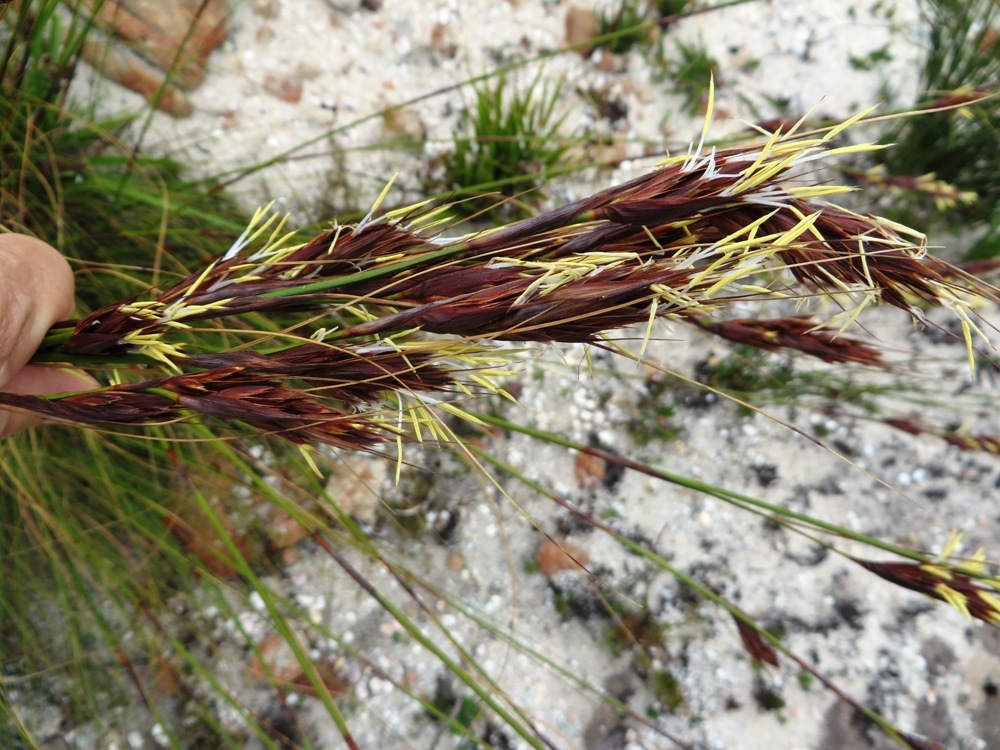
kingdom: Plantae
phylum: Tracheophyta
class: Liliopsida
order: Poales
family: Cyperaceae
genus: Tetraria
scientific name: Tetraria ustulata
